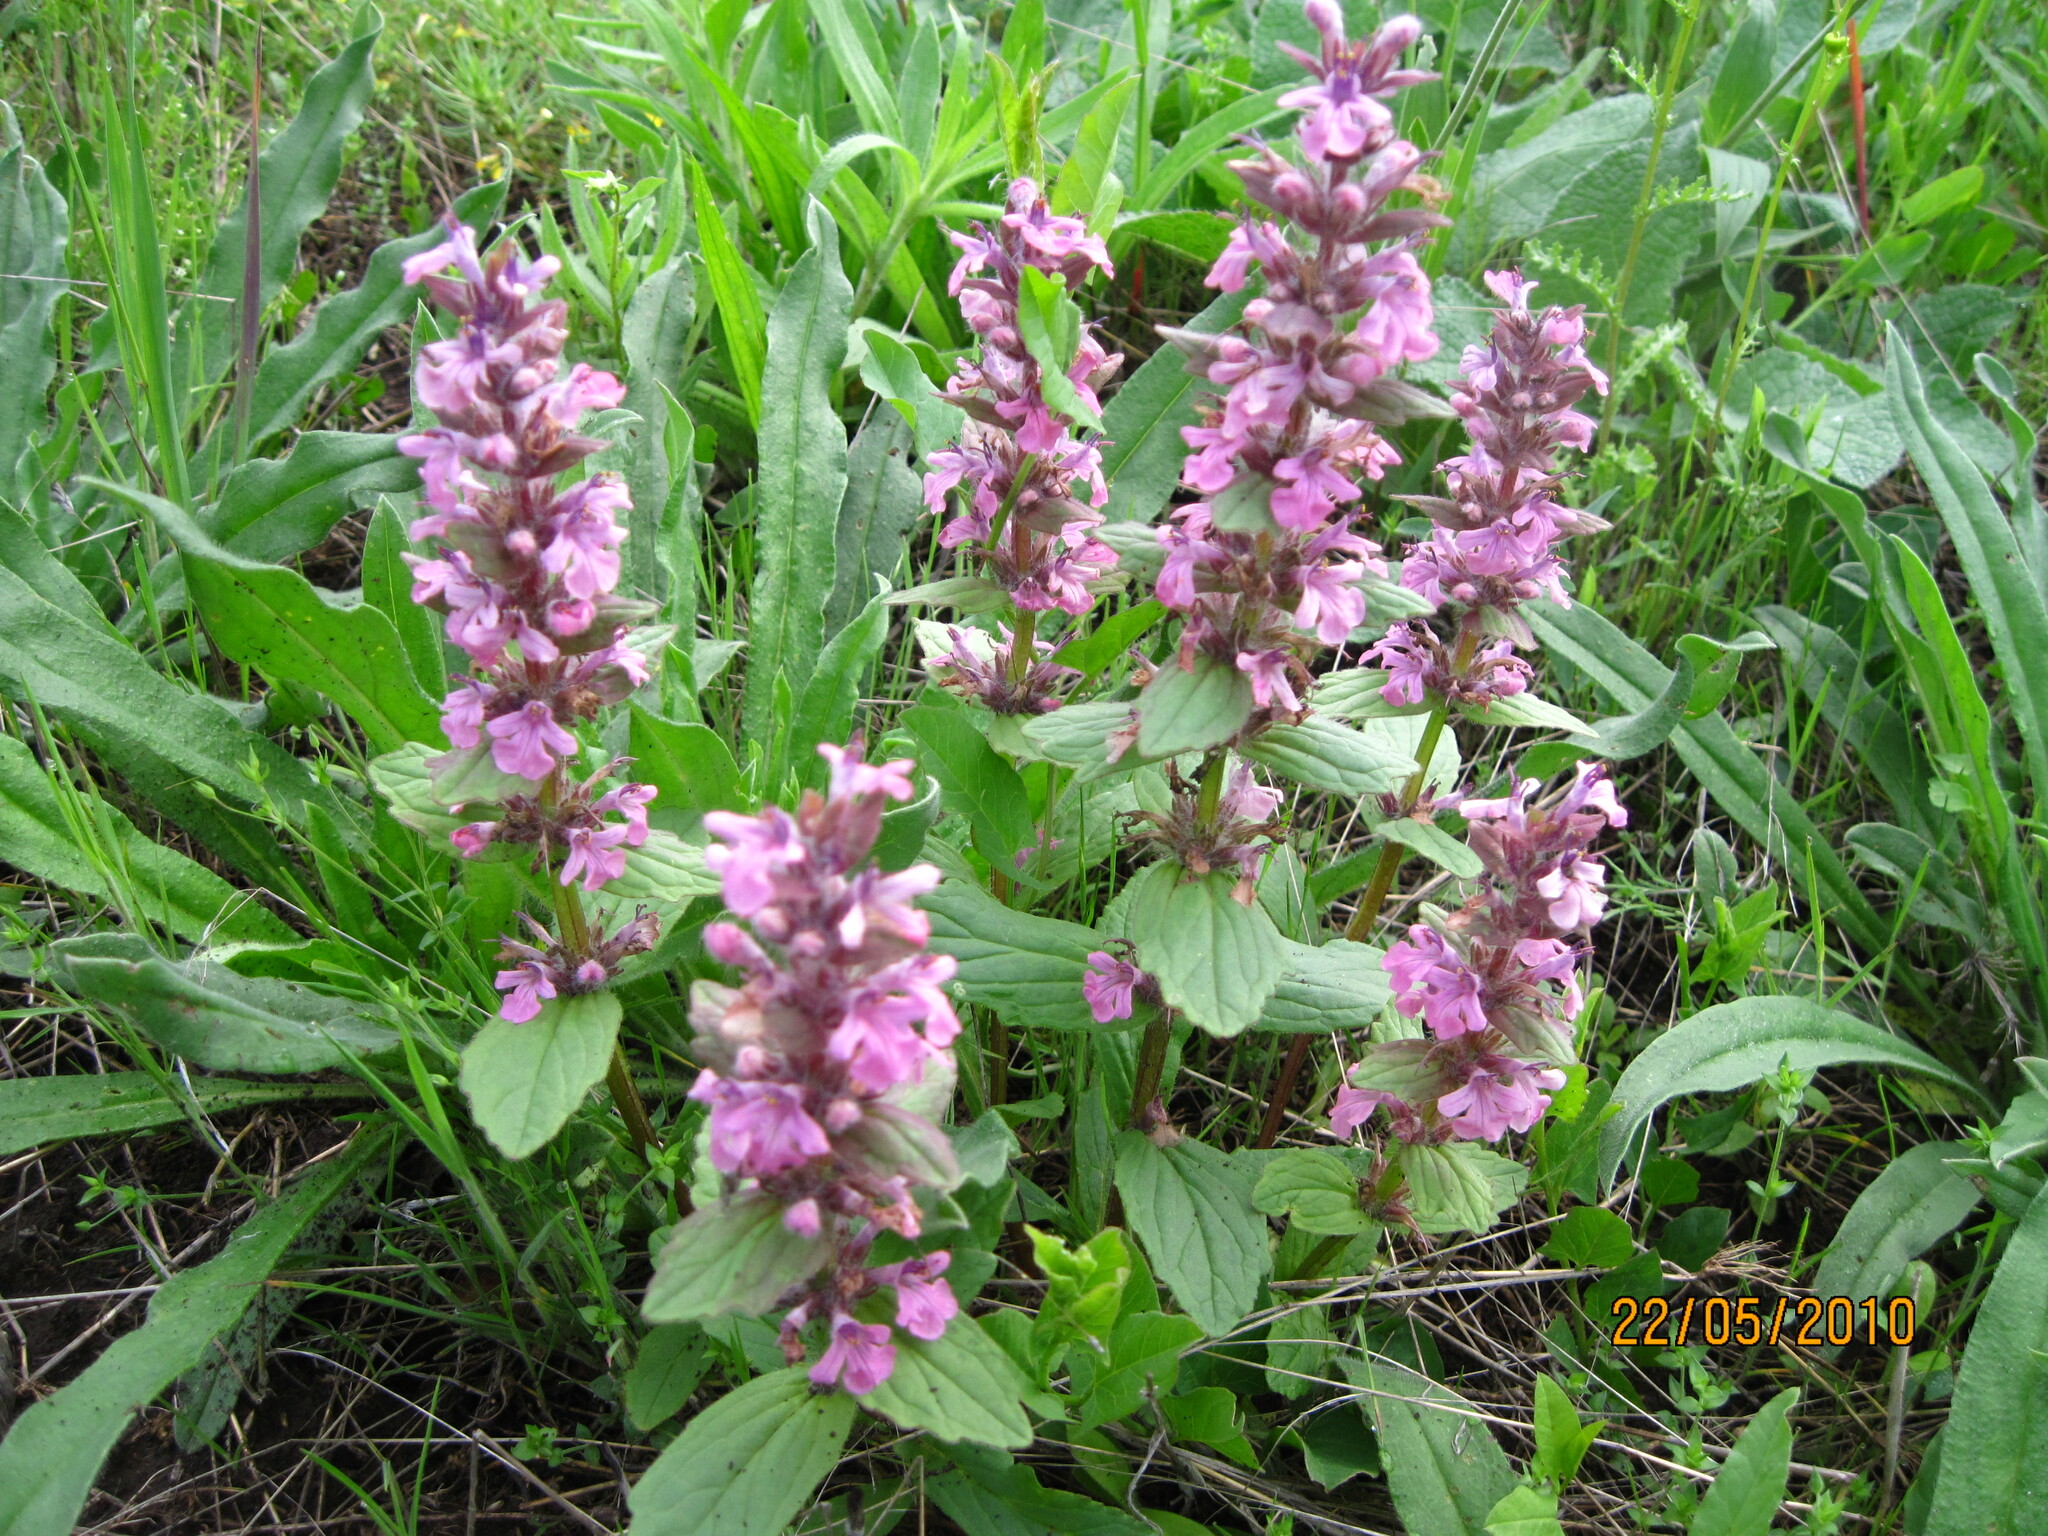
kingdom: Plantae
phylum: Tracheophyta
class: Magnoliopsida
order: Lamiales
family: Lamiaceae
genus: Ajuga
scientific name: Ajuga genevensis
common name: Blue bugle
